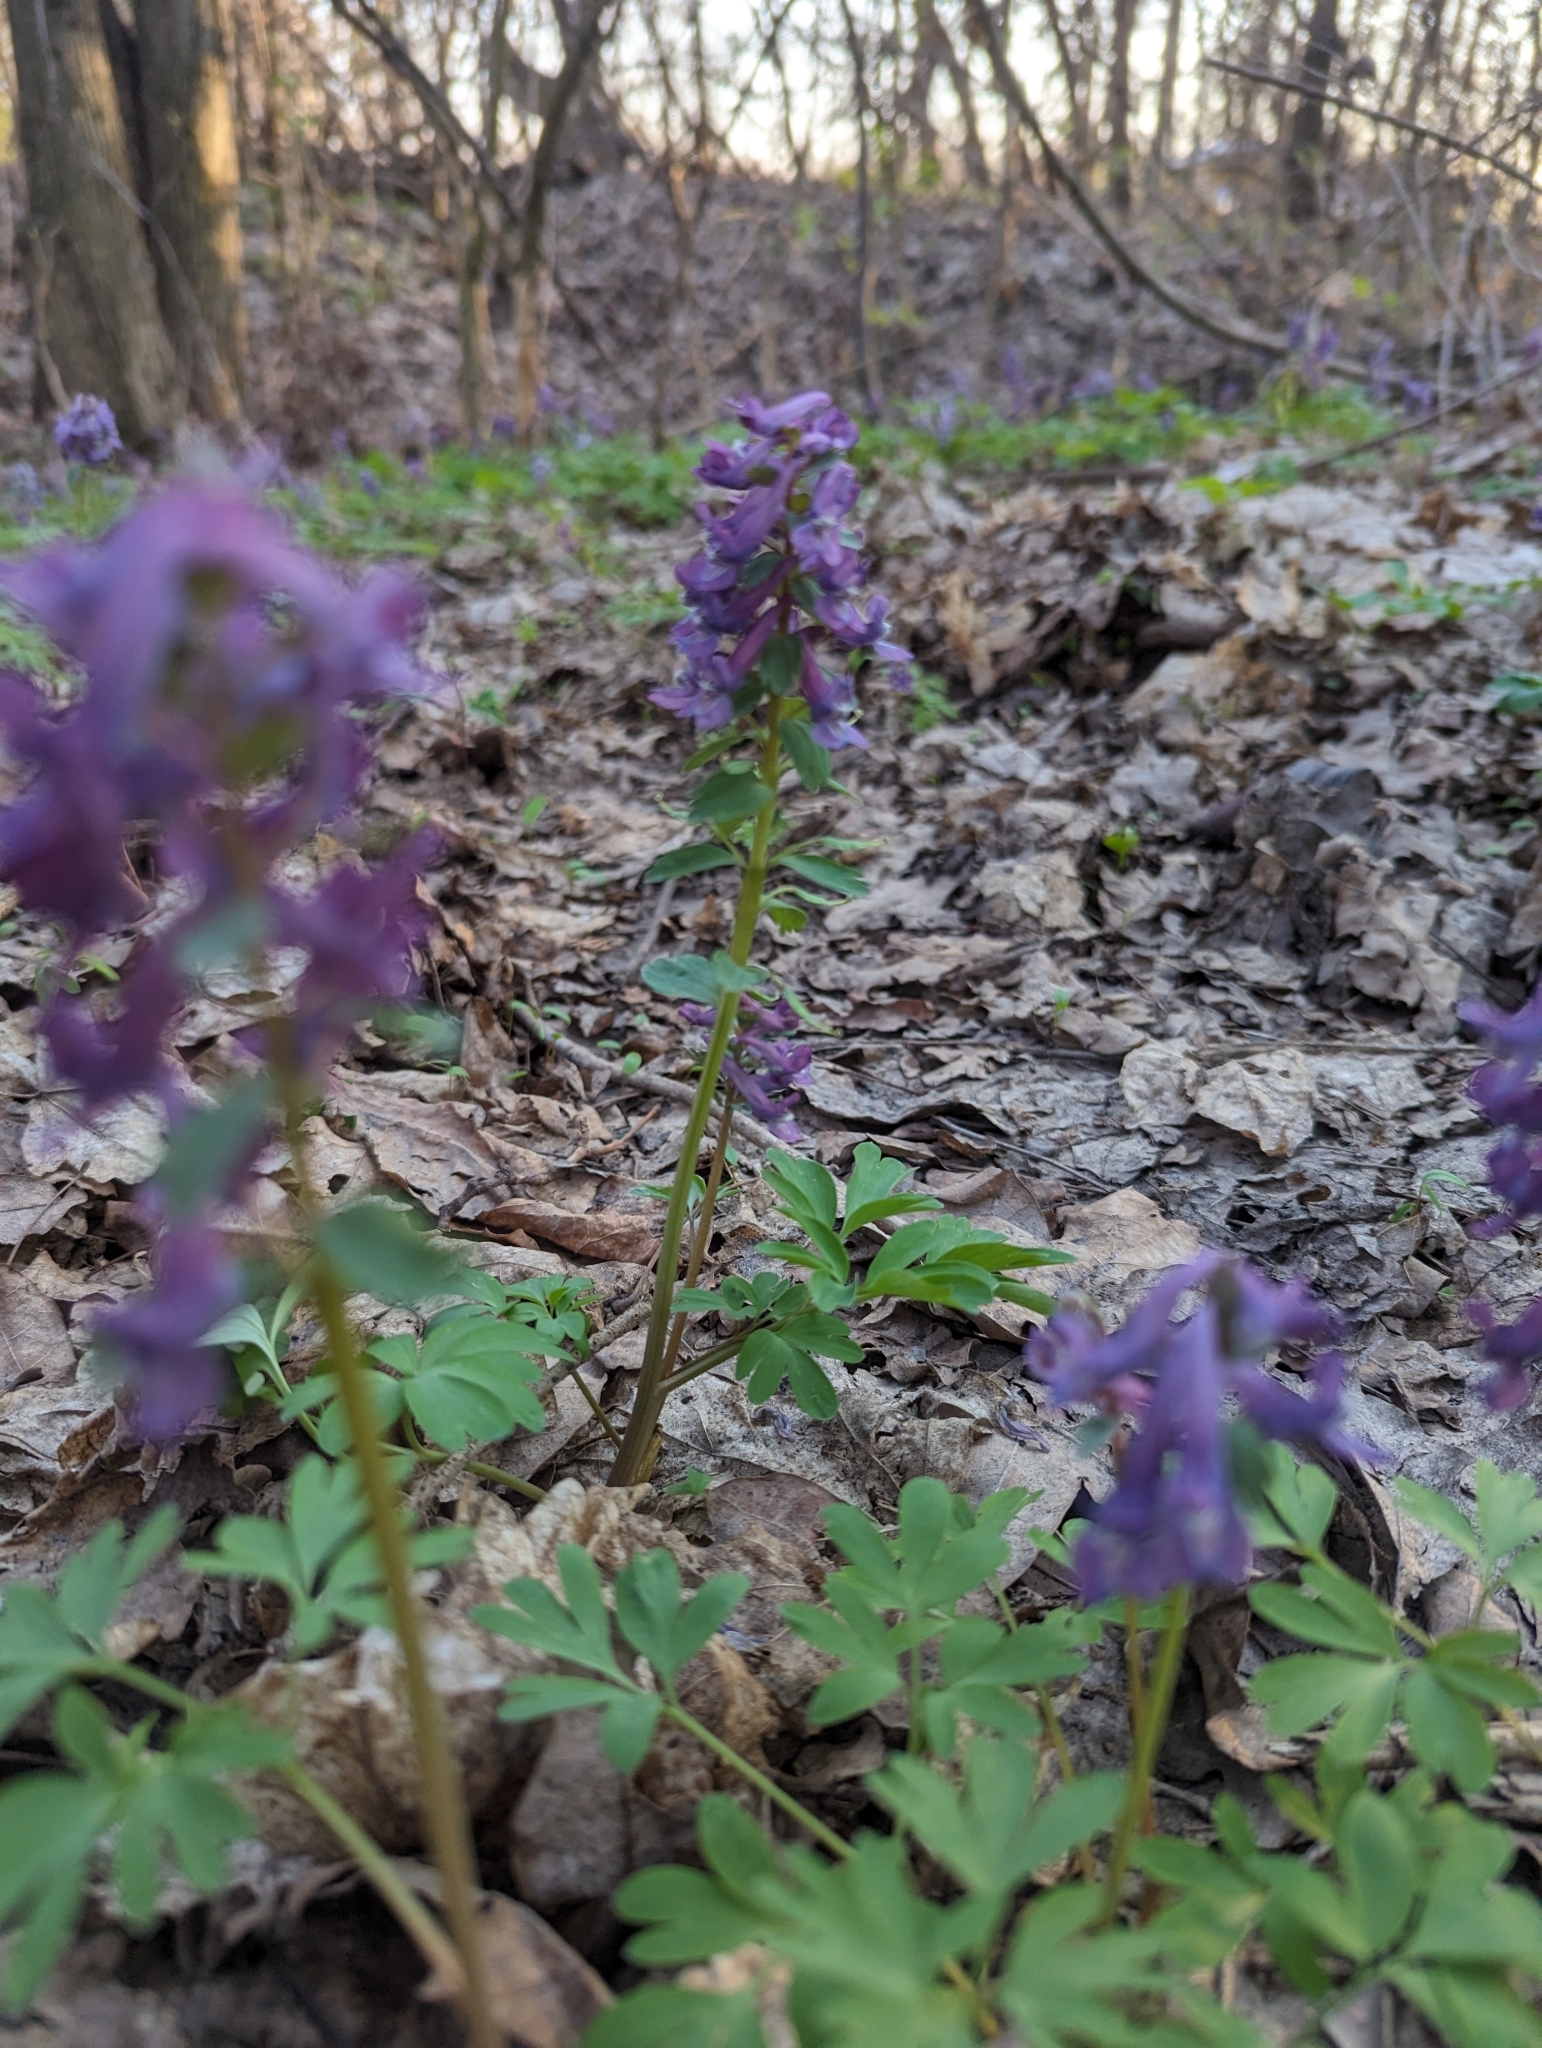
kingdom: Plantae
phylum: Tracheophyta
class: Magnoliopsida
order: Ranunculales
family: Papaveraceae
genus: Corydalis
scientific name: Corydalis solida
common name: Bird-in-a-bush
